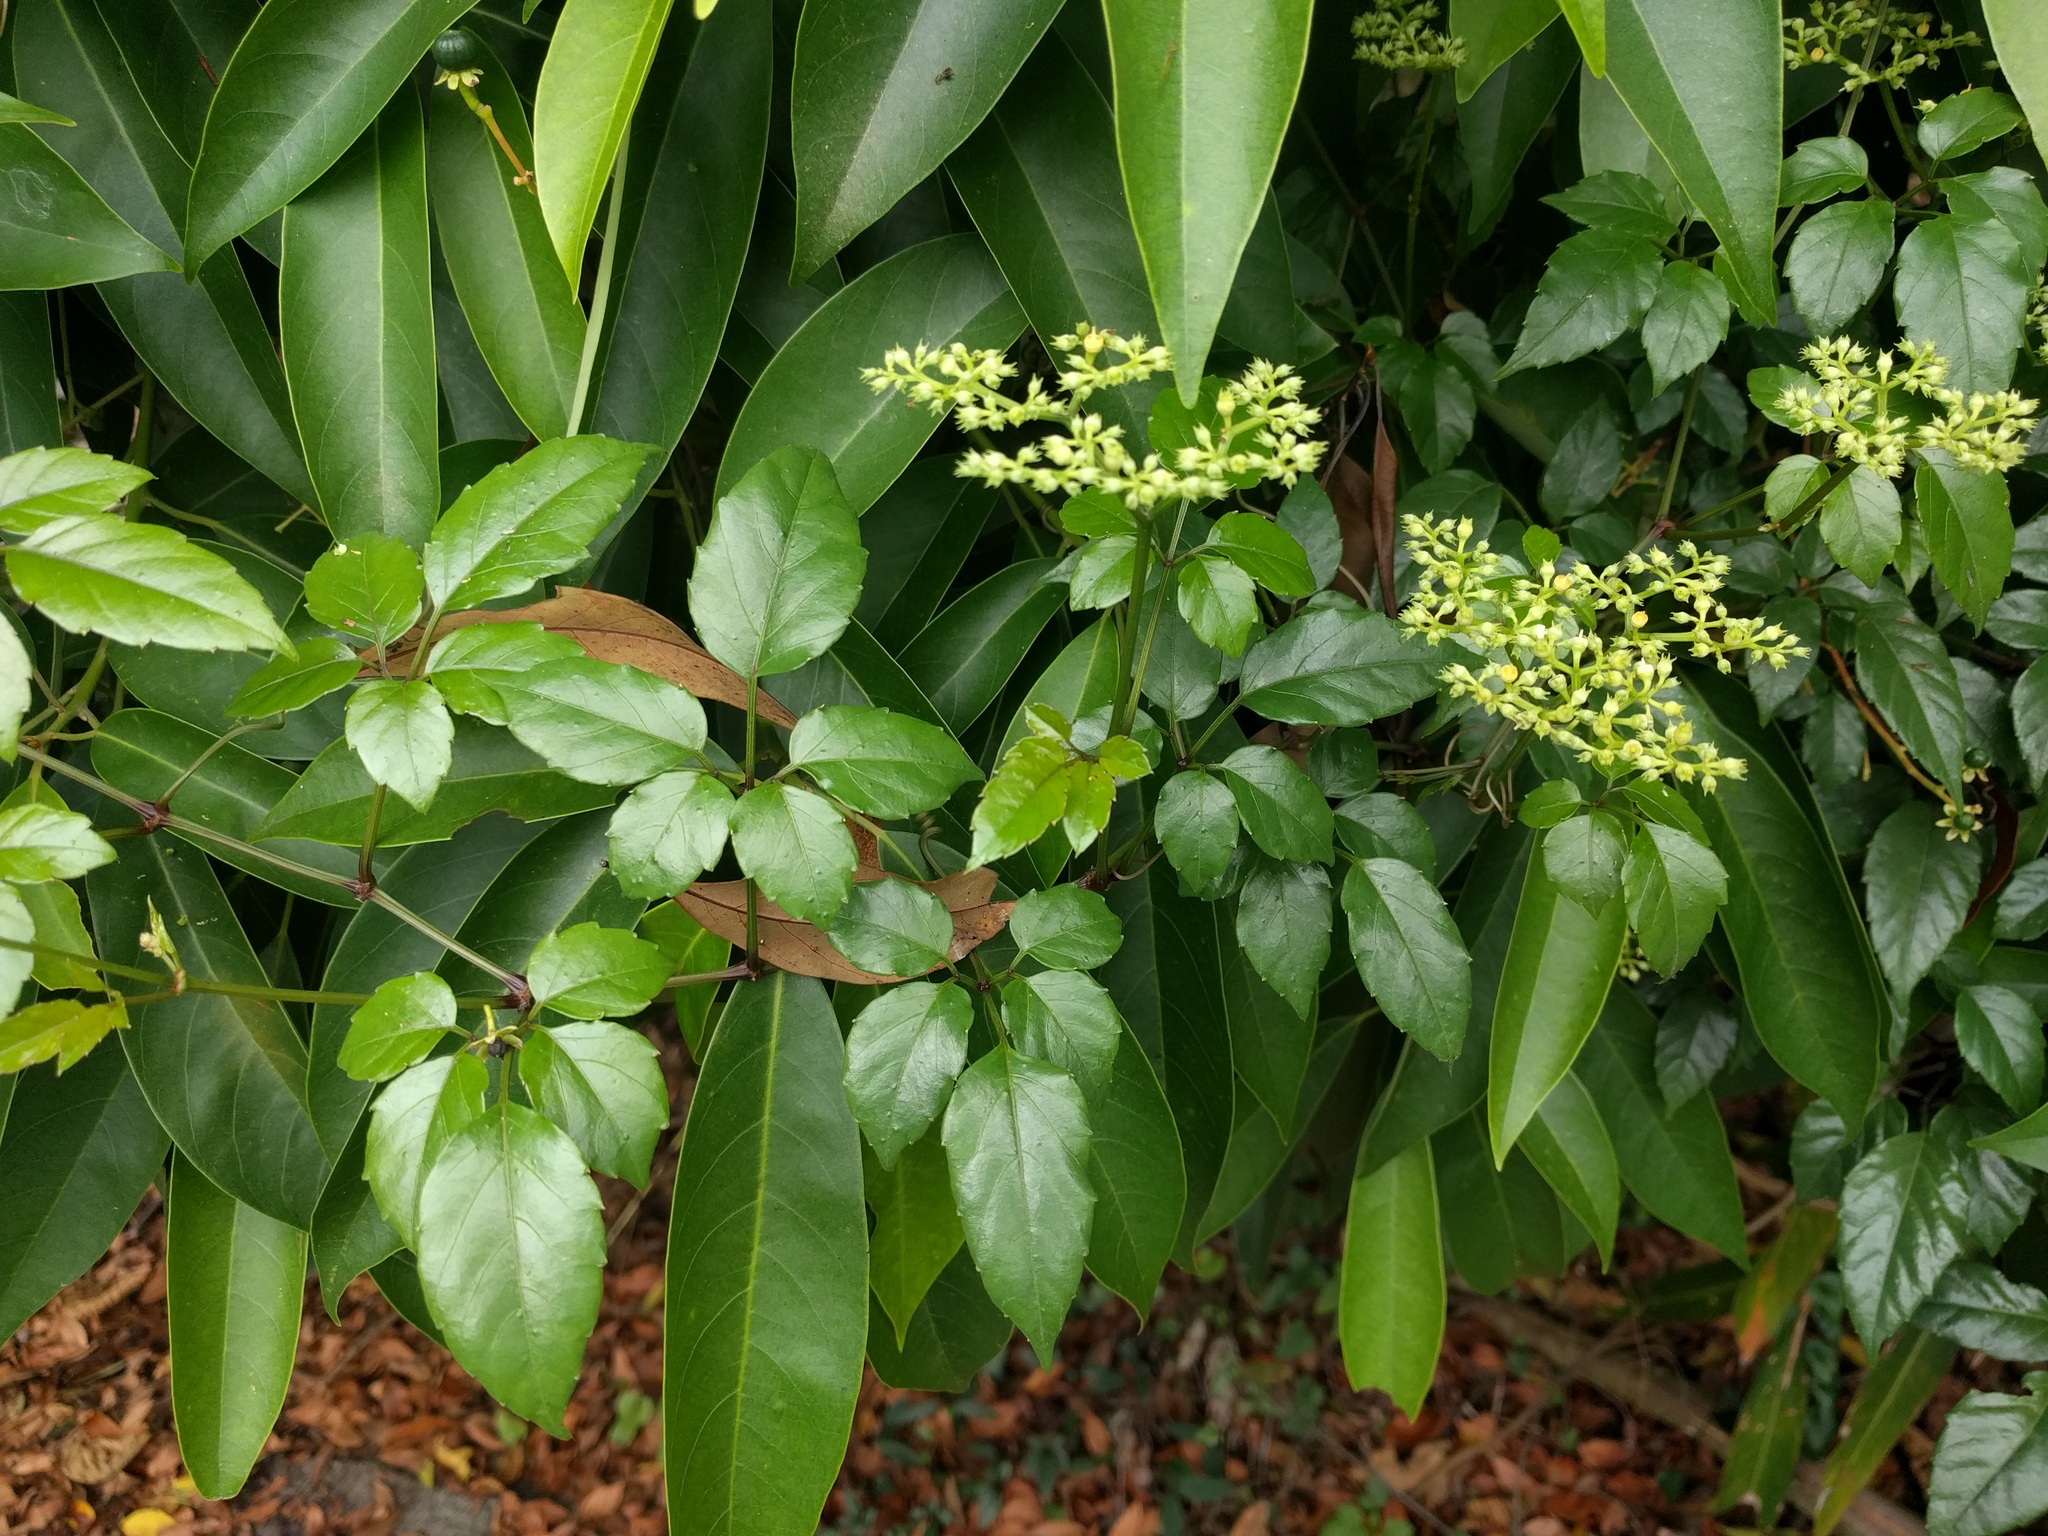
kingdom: Plantae
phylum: Tracheophyta
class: Magnoliopsida
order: Vitales
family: Vitaceae
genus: Causonis
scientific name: Causonis corniculata
